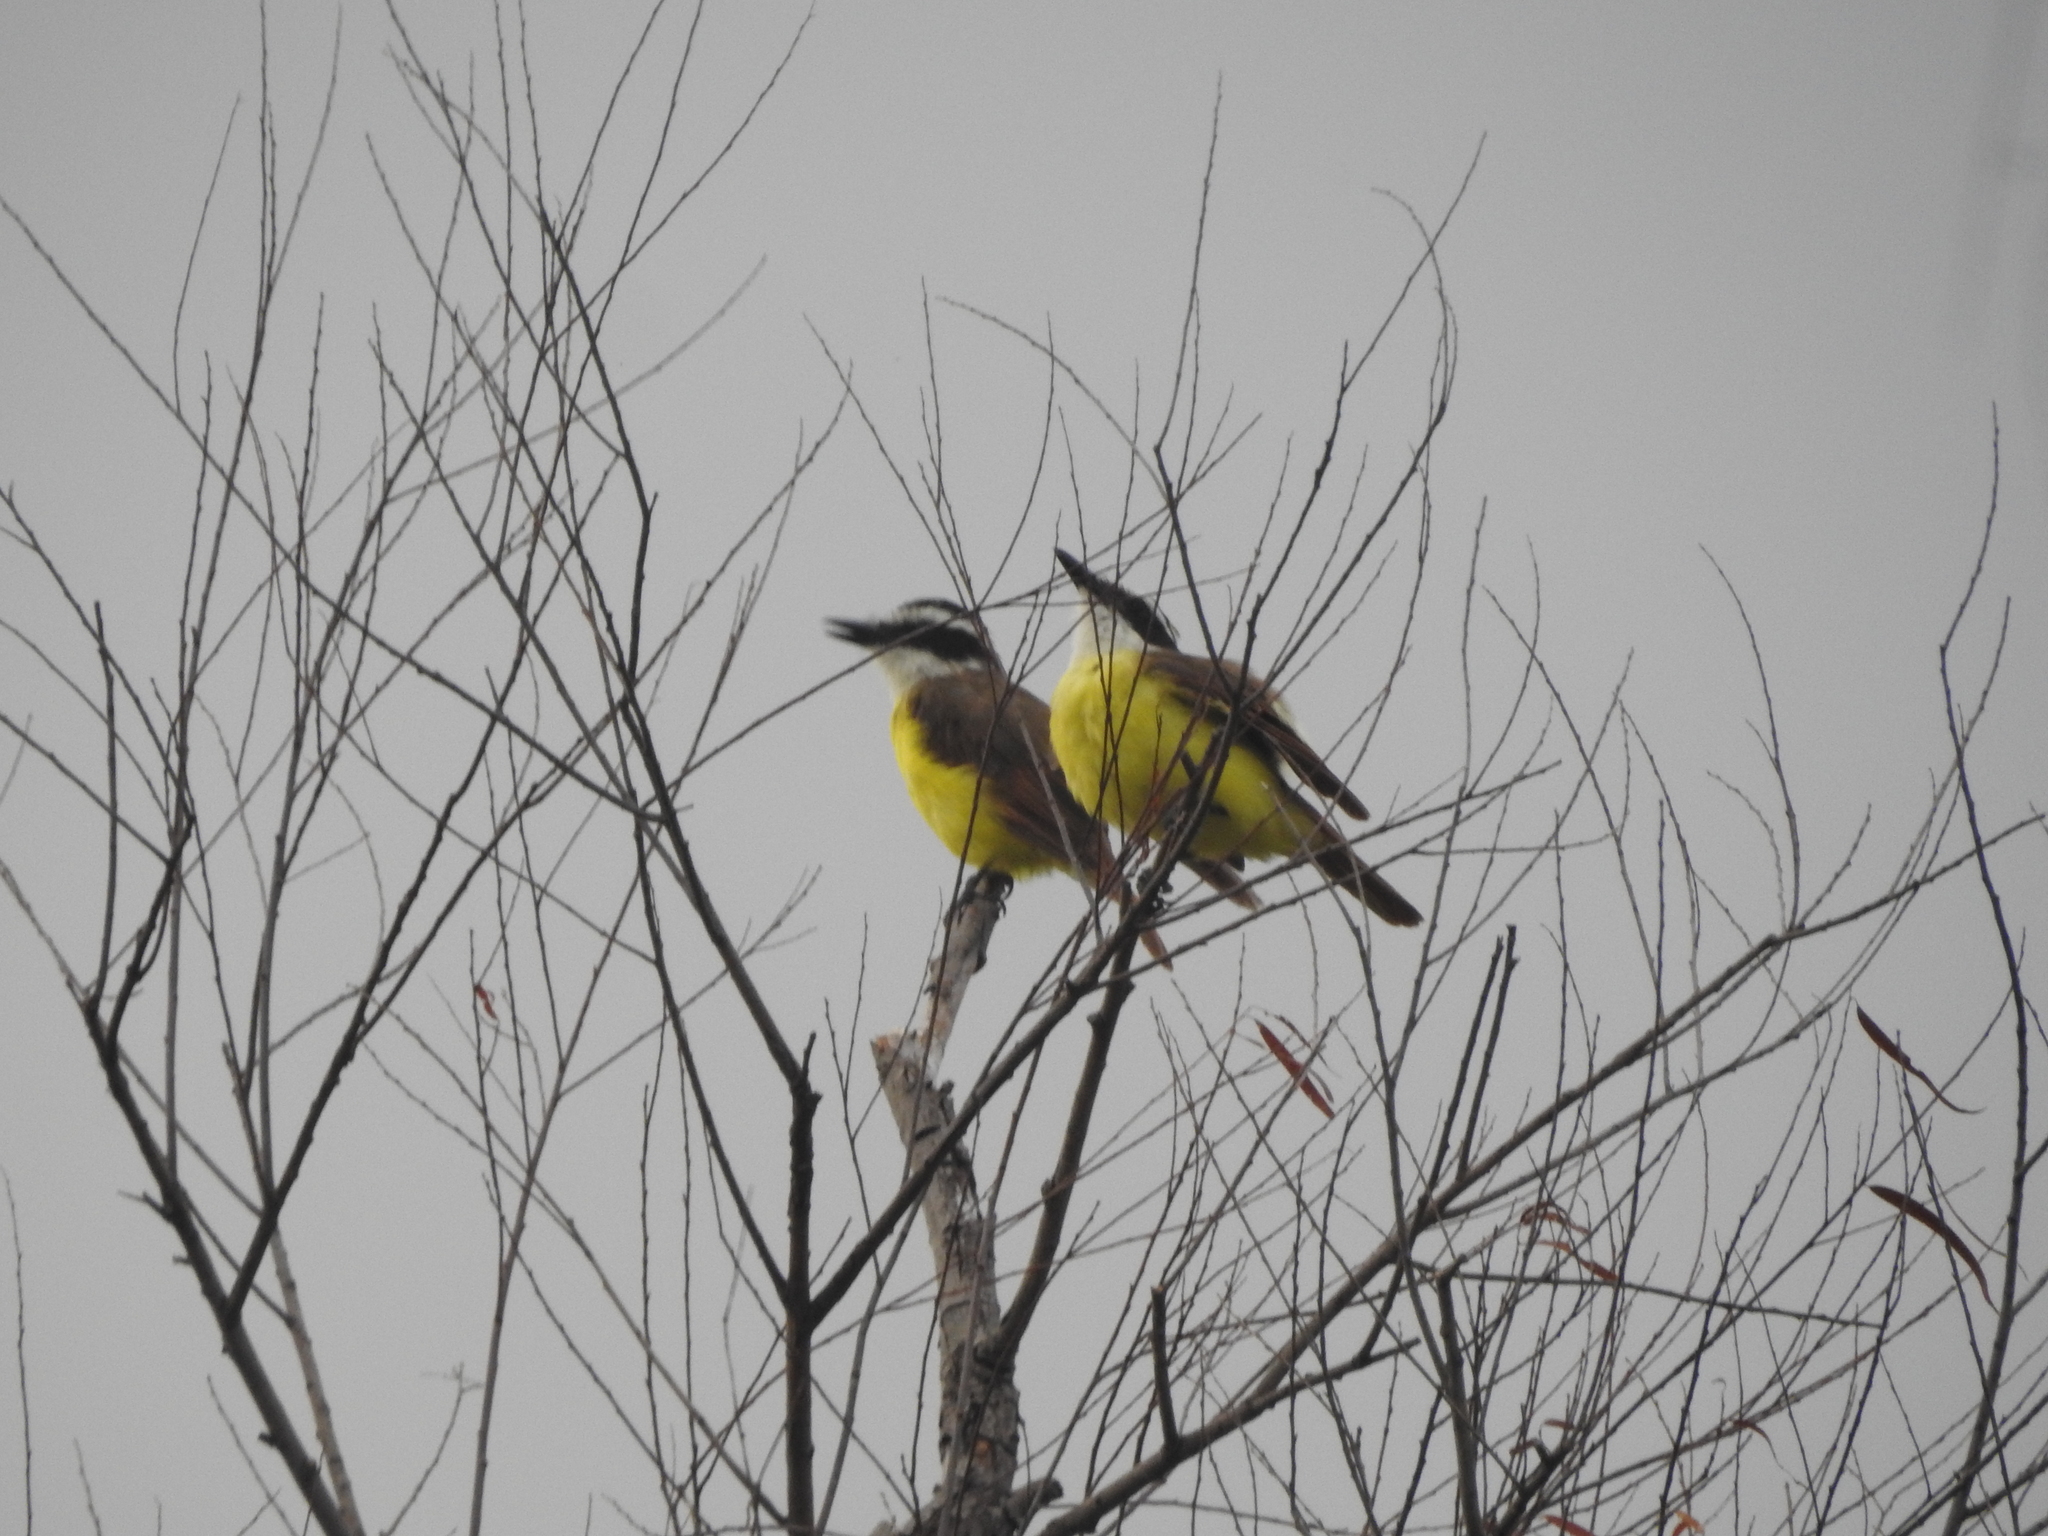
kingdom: Animalia
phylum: Chordata
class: Aves
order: Passeriformes
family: Tyrannidae
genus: Pitangus
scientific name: Pitangus sulphuratus
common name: Great kiskadee
